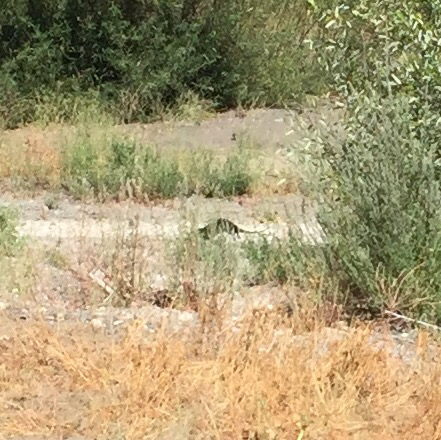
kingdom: Animalia
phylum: Chordata
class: Mammalia
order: Carnivora
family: Mustelidae
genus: Lontra
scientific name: Lontra canadensis
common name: North american river otter
